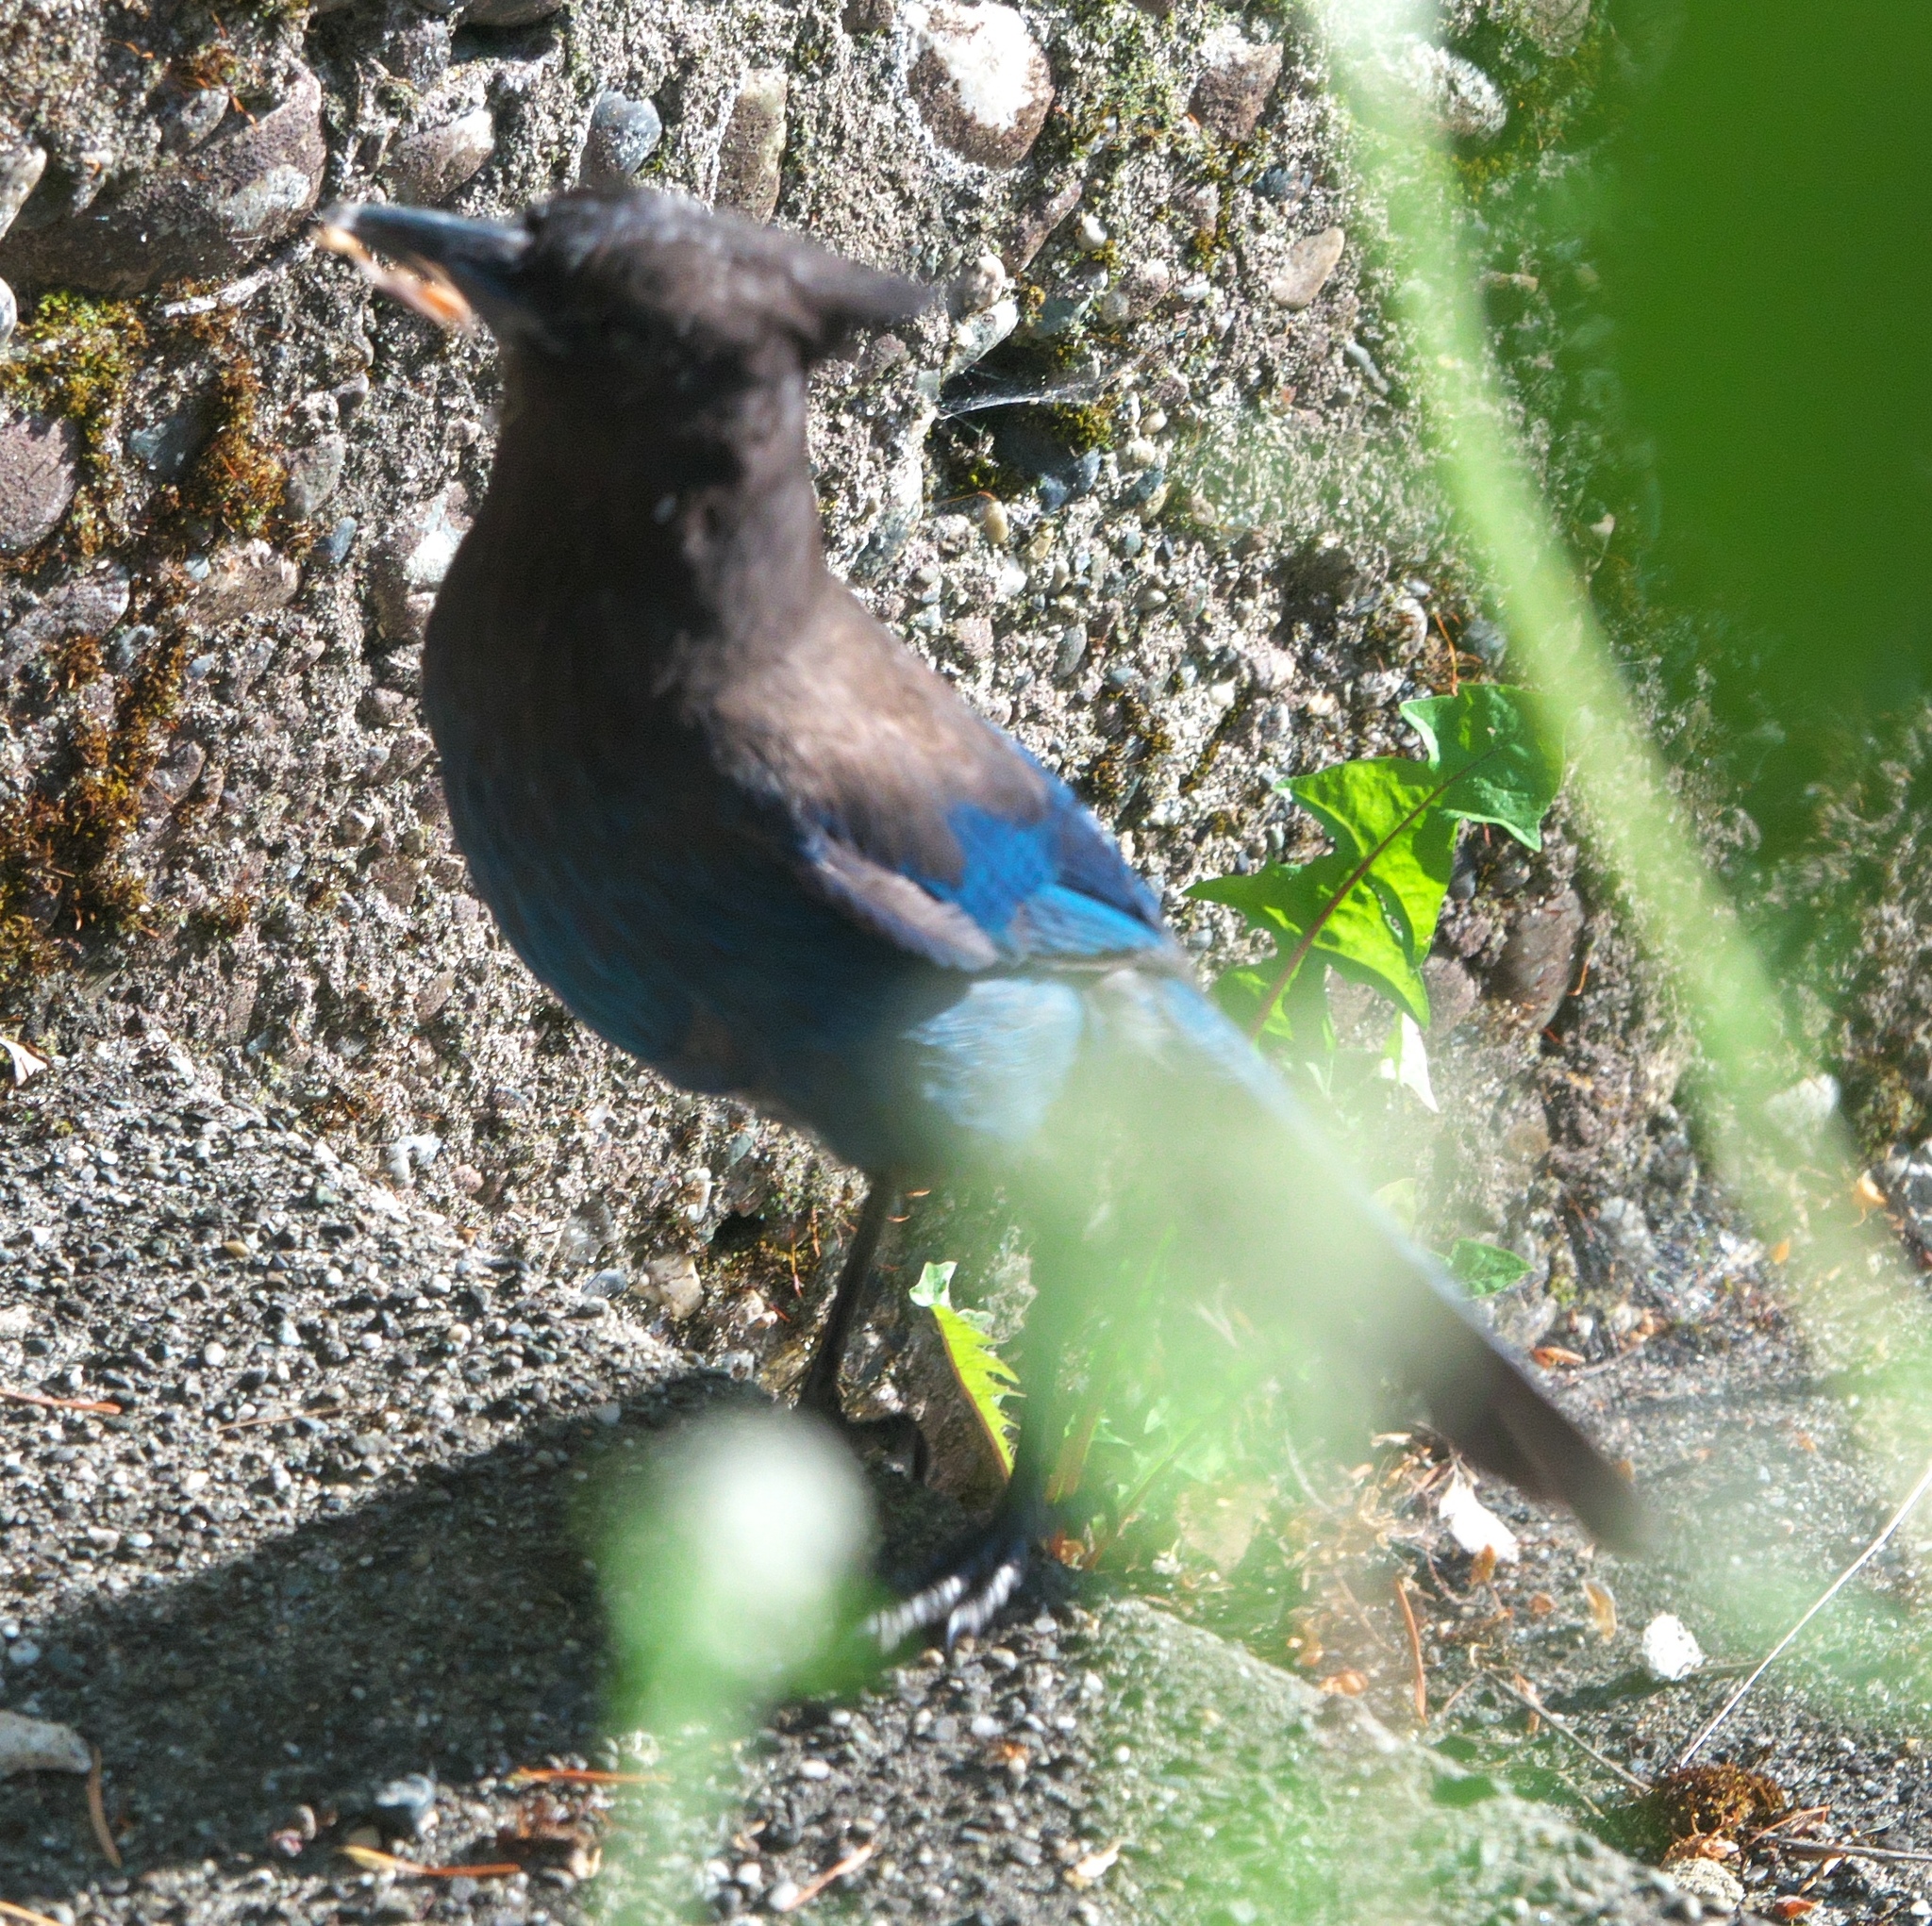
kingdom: Animalia
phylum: Chordata
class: Aves
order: Passeriformes
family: Corvidae
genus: Cyanocitta
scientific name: Cyanocitta stelleri
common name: Steller's jay
